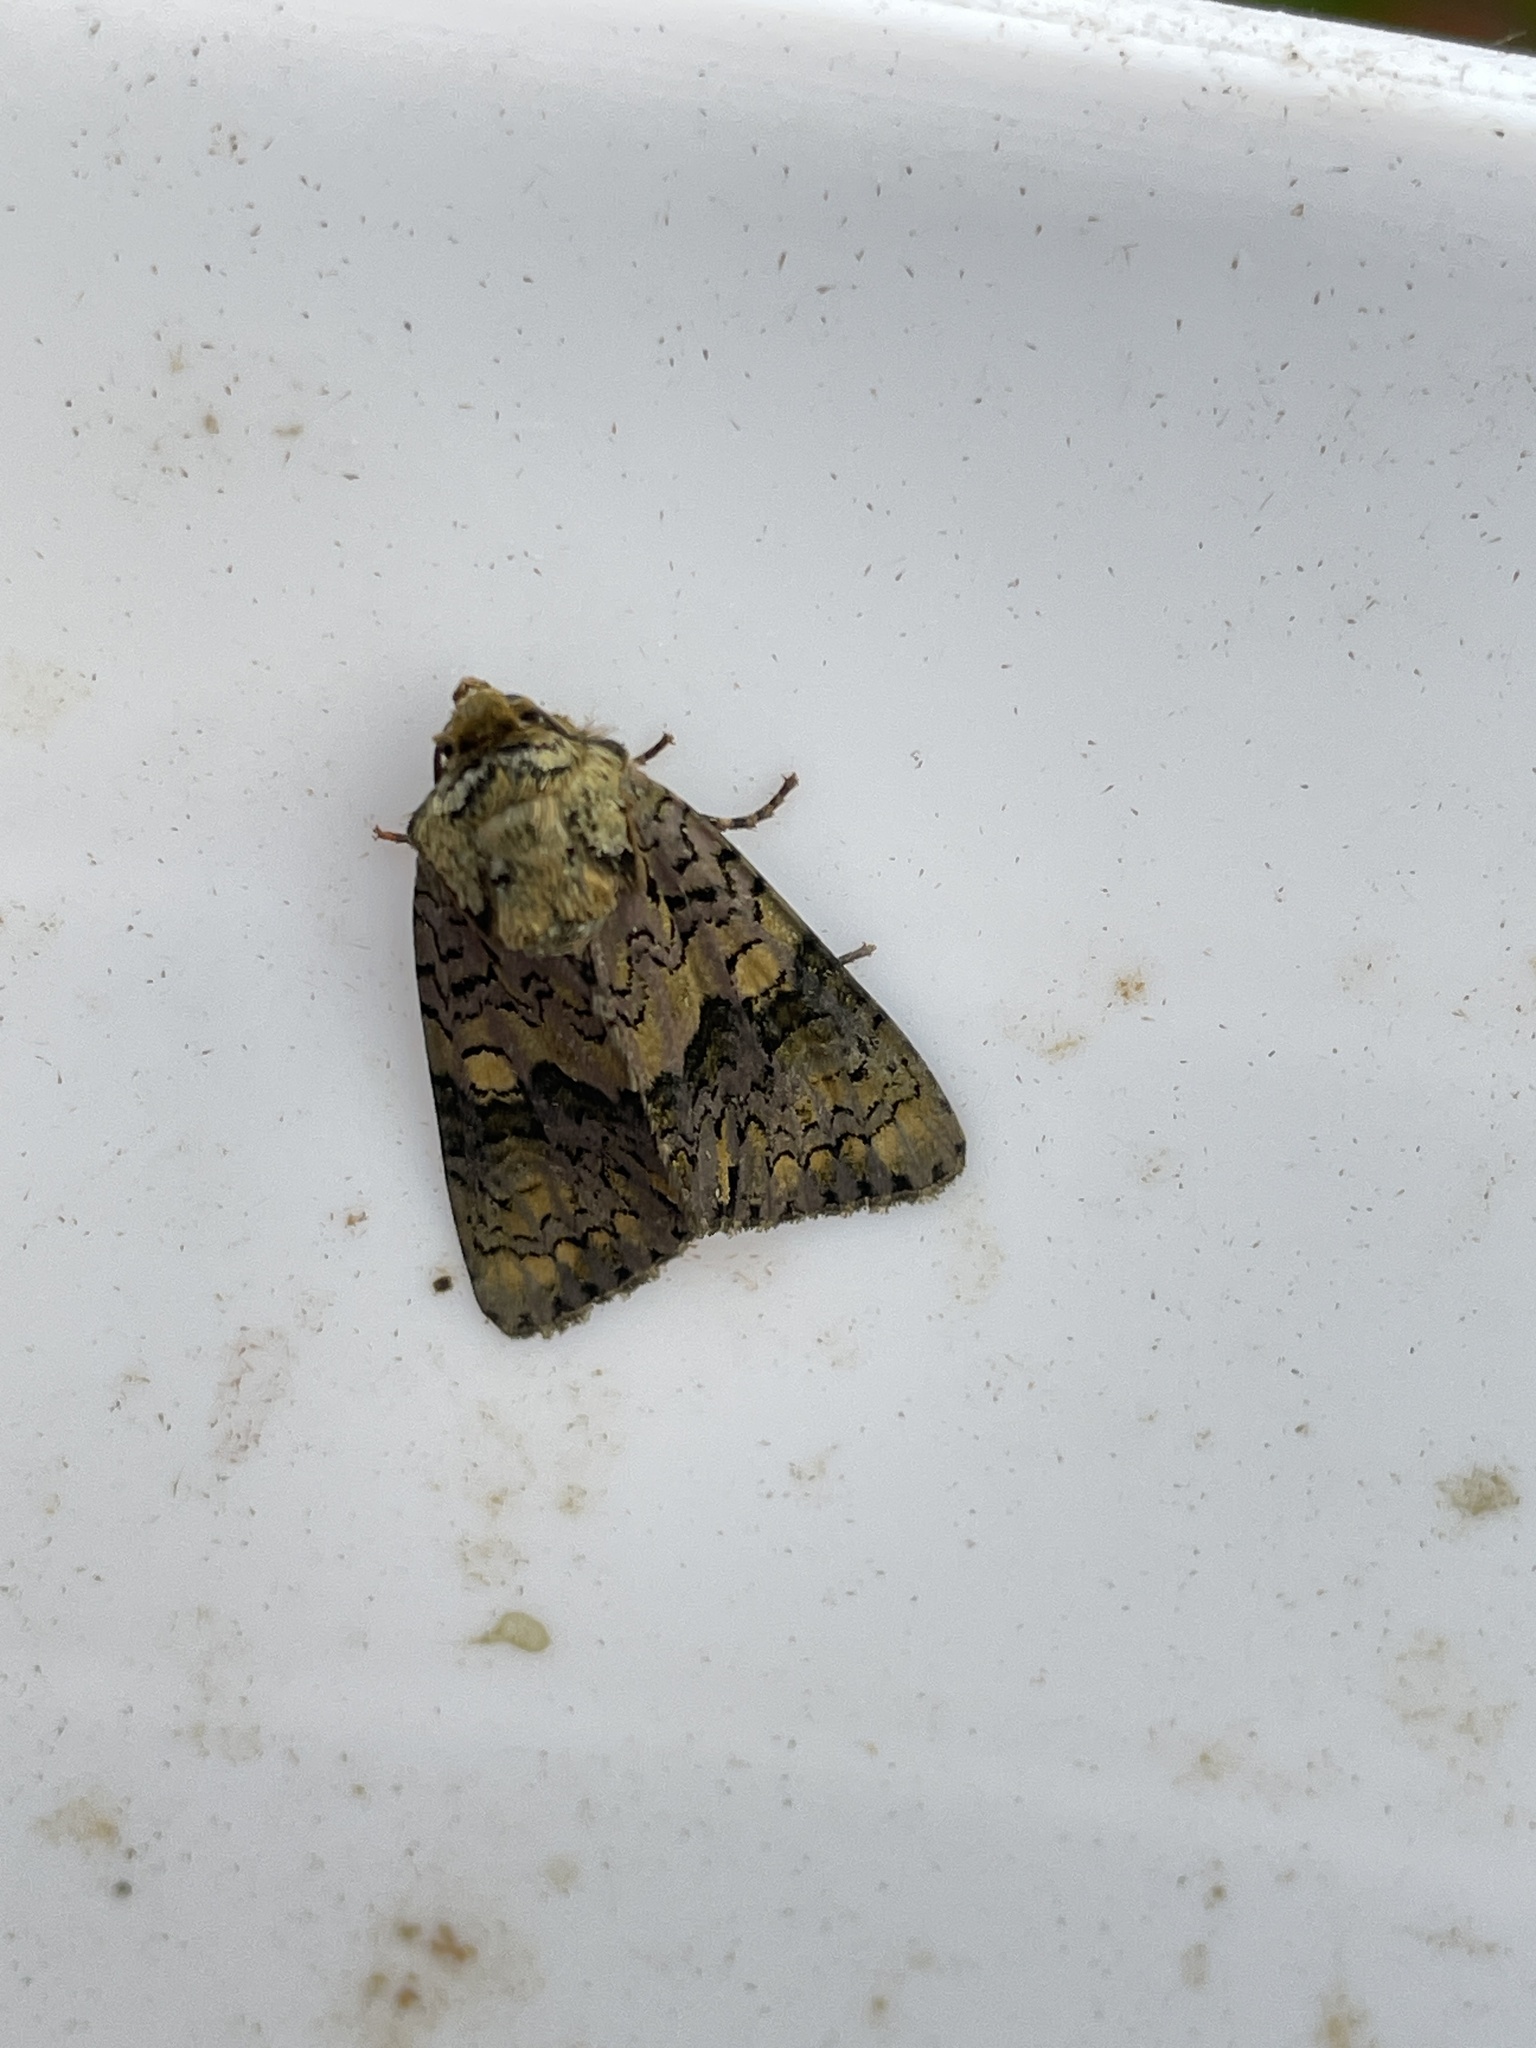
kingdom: Animalia
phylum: Arthropoda
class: Insecta
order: Lepidoptera
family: Noctuidae
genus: Craniophora
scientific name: Craniophora ligustri
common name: Coronet
